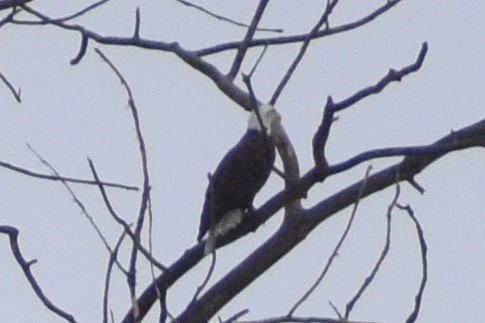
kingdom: Animalia
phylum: Chordata
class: Aves
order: Accipitriformes
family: Accipitridae
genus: Haliaeetus
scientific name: Haliaeetus leucocephalus
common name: Bald eagle
